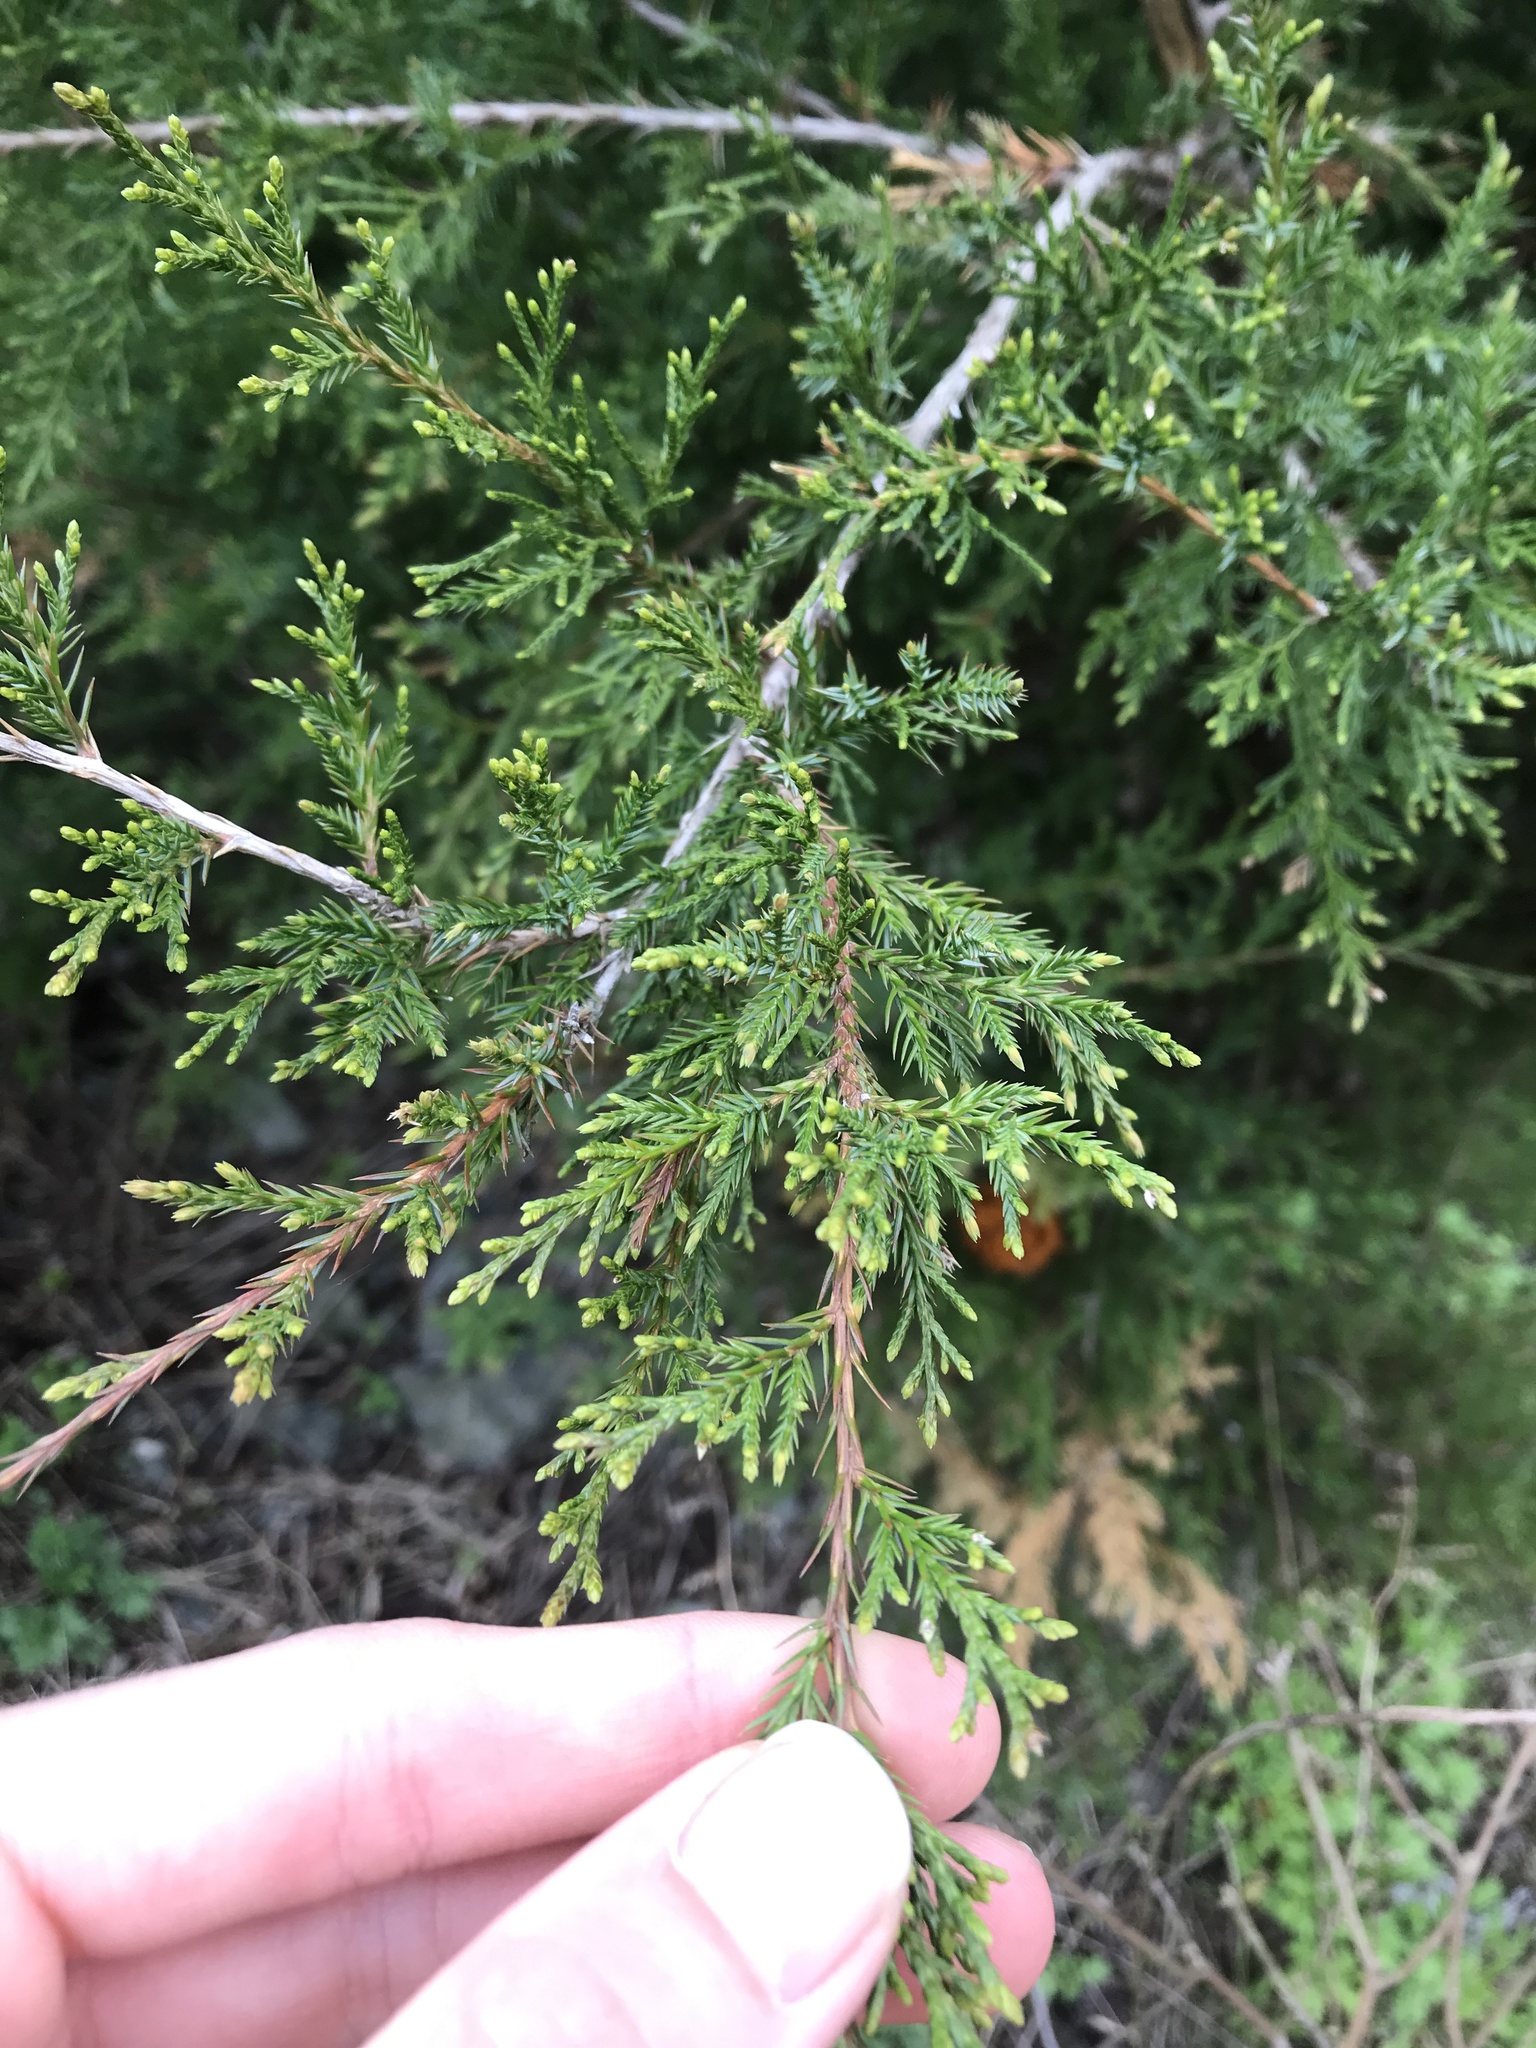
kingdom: Plantae
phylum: Tracheophyta
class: Pinopsida
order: Pinales
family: Cupressaceae
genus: Juniperus
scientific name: Juniperus virginiana
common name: Red juniper
